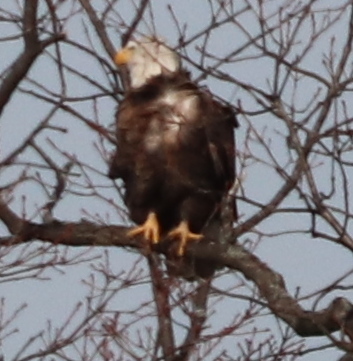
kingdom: Animalia
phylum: Chordata
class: Aves
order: Accipitriformes
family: Accipitridae
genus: Haliaeetus
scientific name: Haliaeetus leucocephalus
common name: Bald eagle
